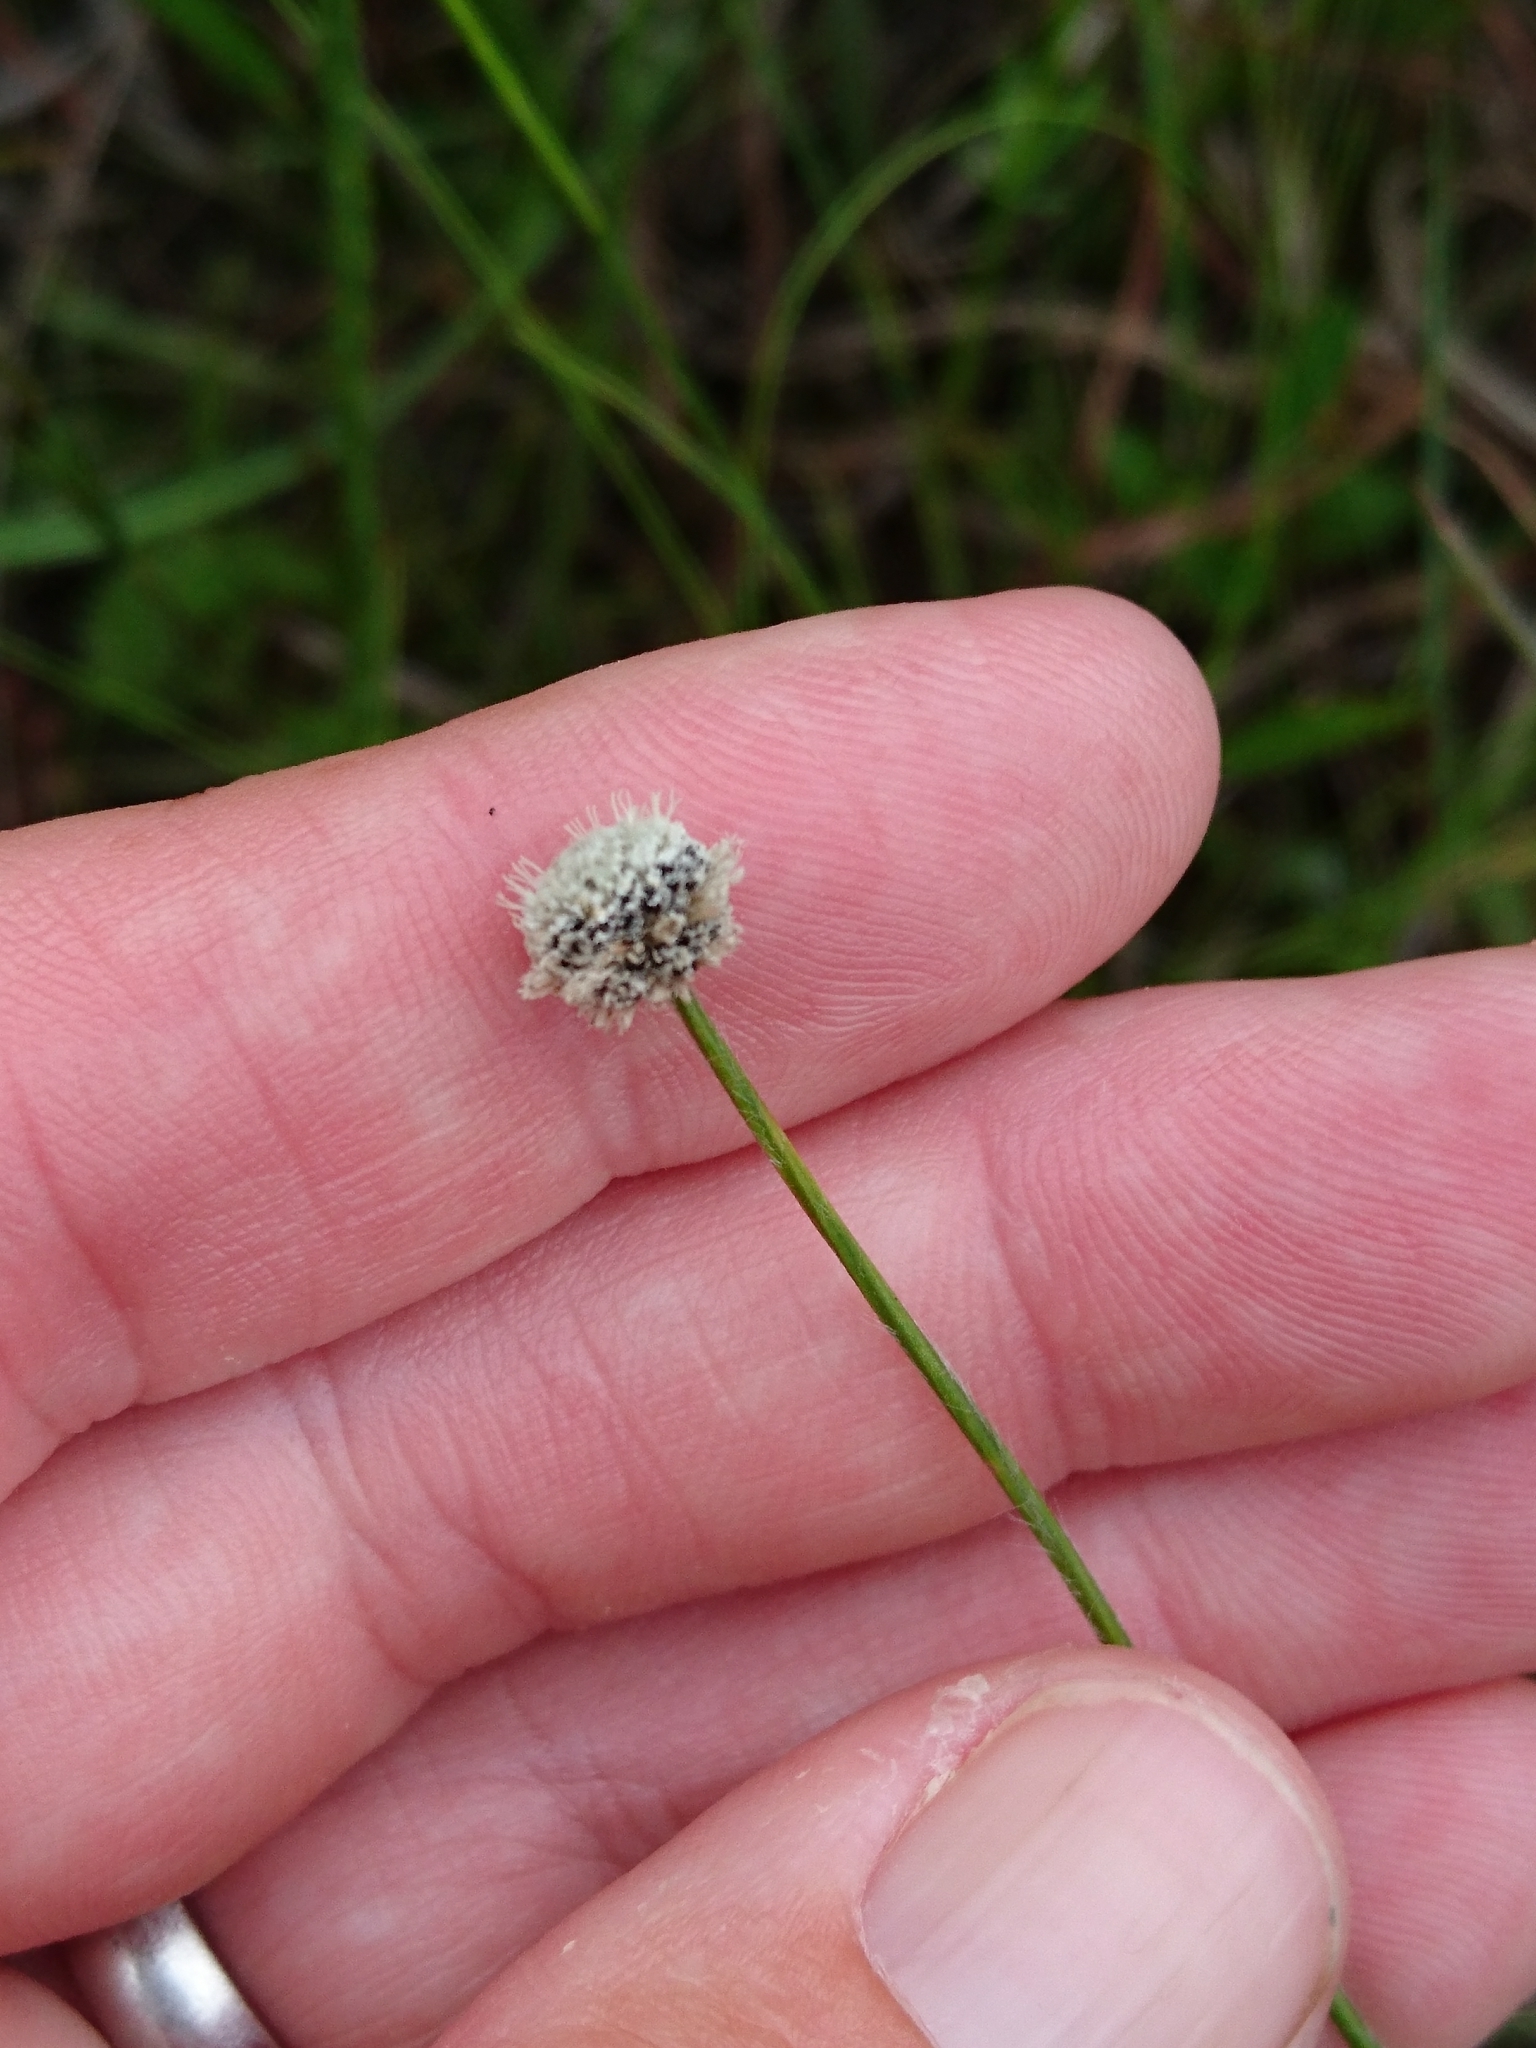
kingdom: Plantae
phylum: Tracheophyta
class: Liliopsida
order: Poales
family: Eriocaulaceae
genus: Paepalanthus
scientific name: Paepalanthus anceps
